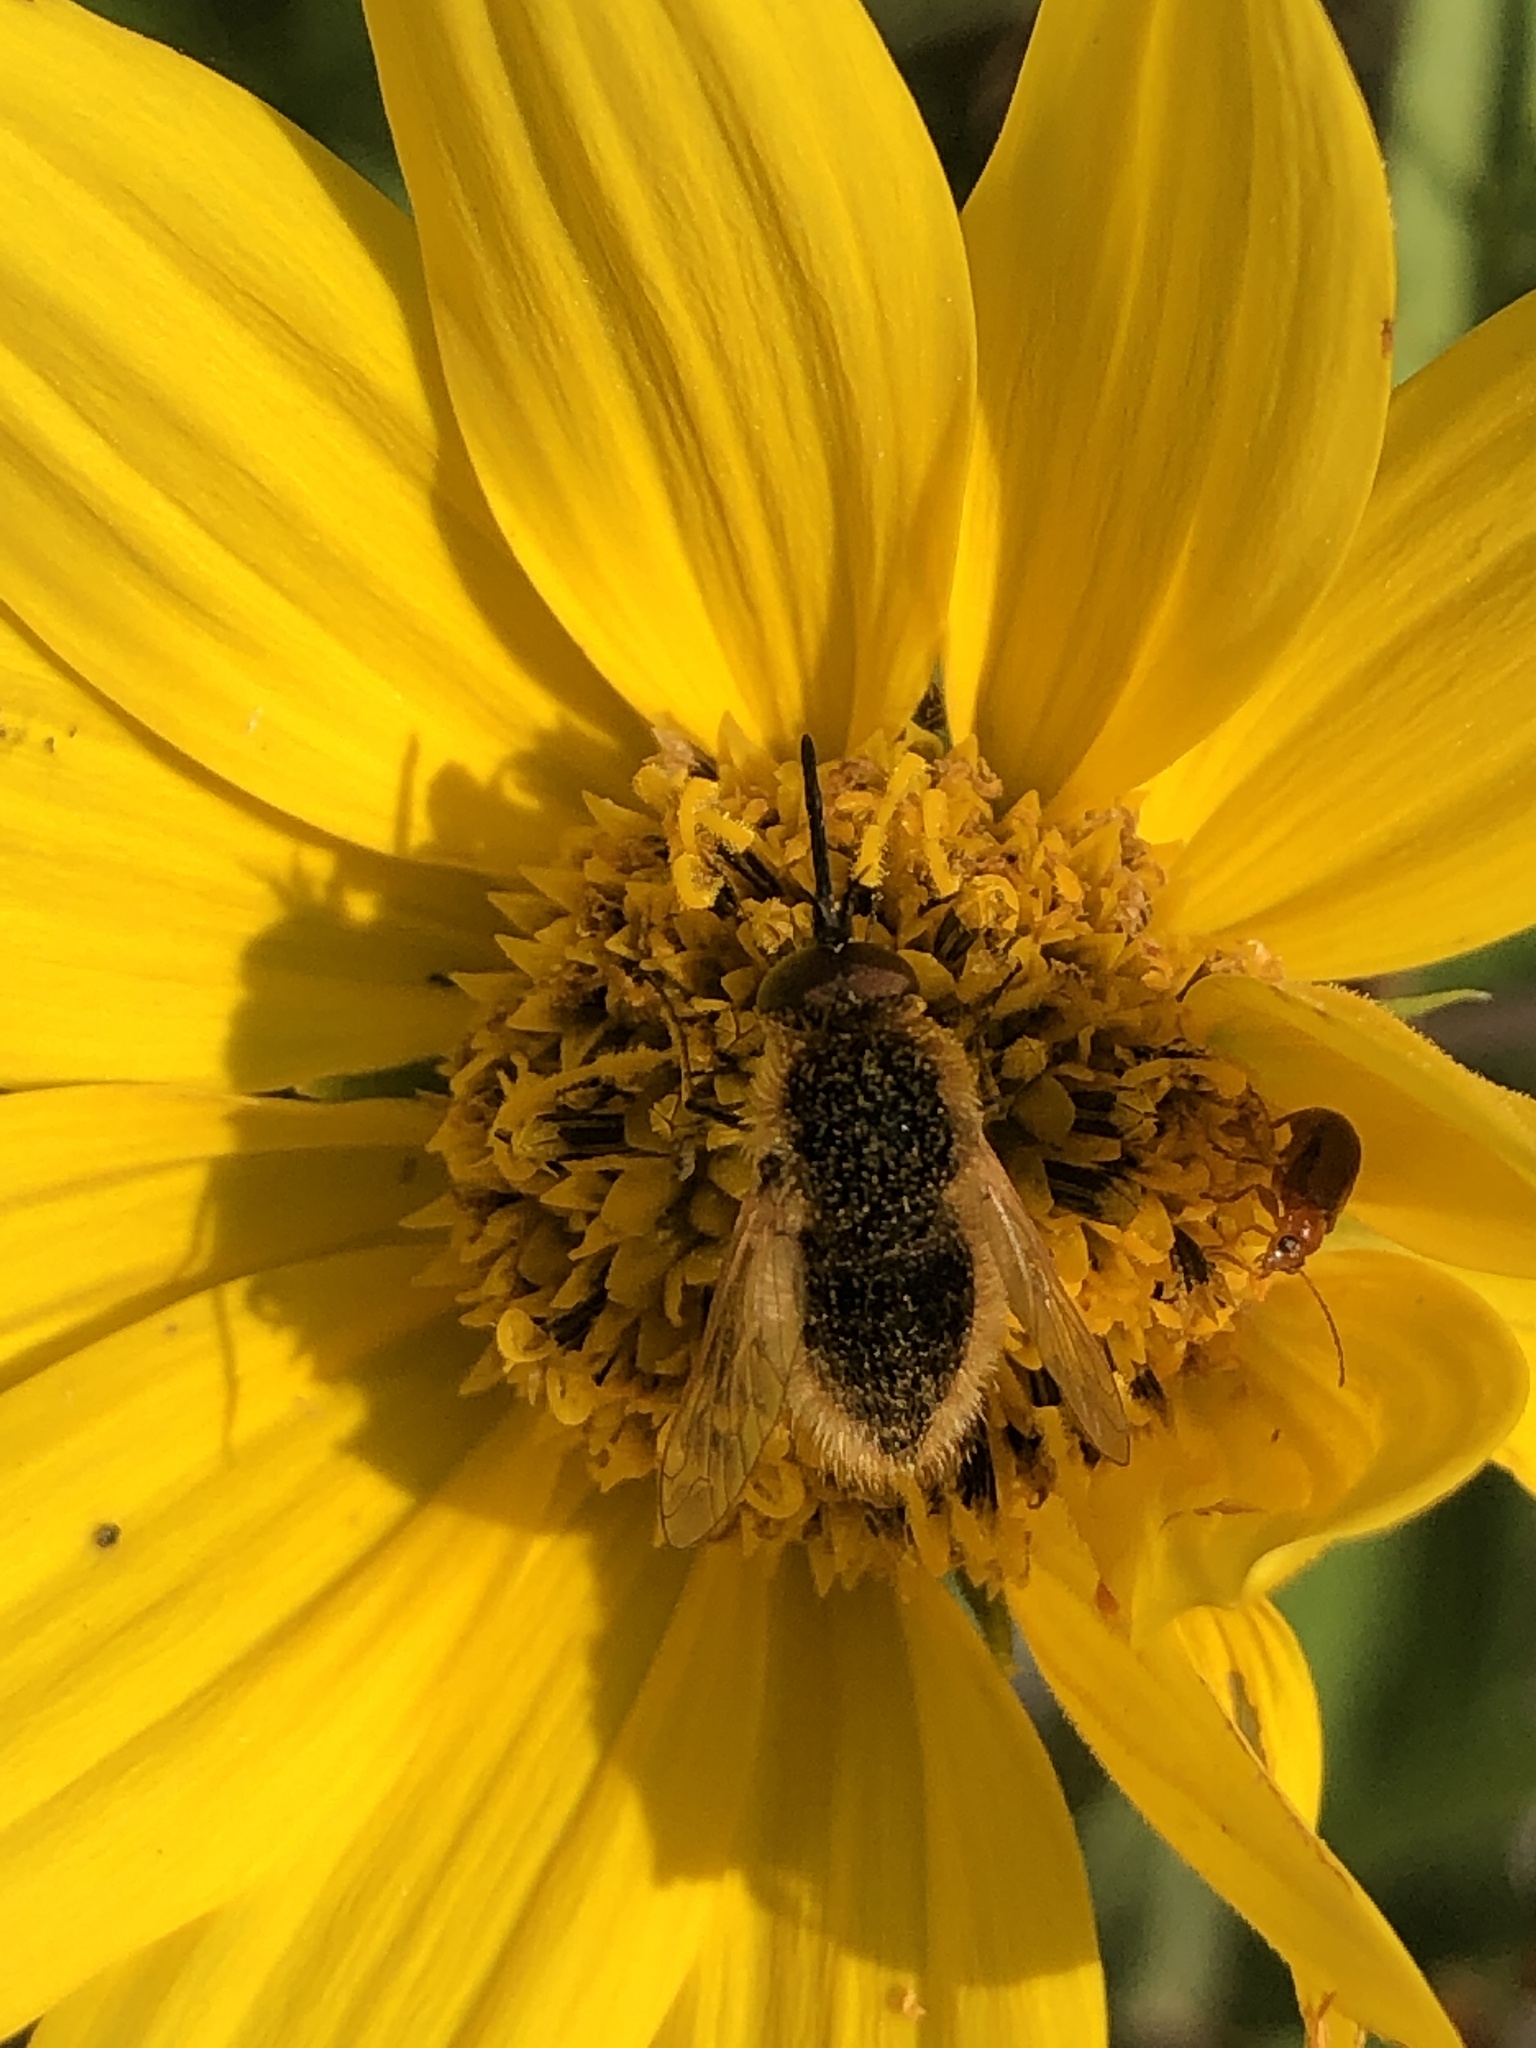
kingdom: Animalia
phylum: Arthropoda
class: Insecta
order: Diptera
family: Bombyliidae
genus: Sparnopolius
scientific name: Sparnopolius confusus
